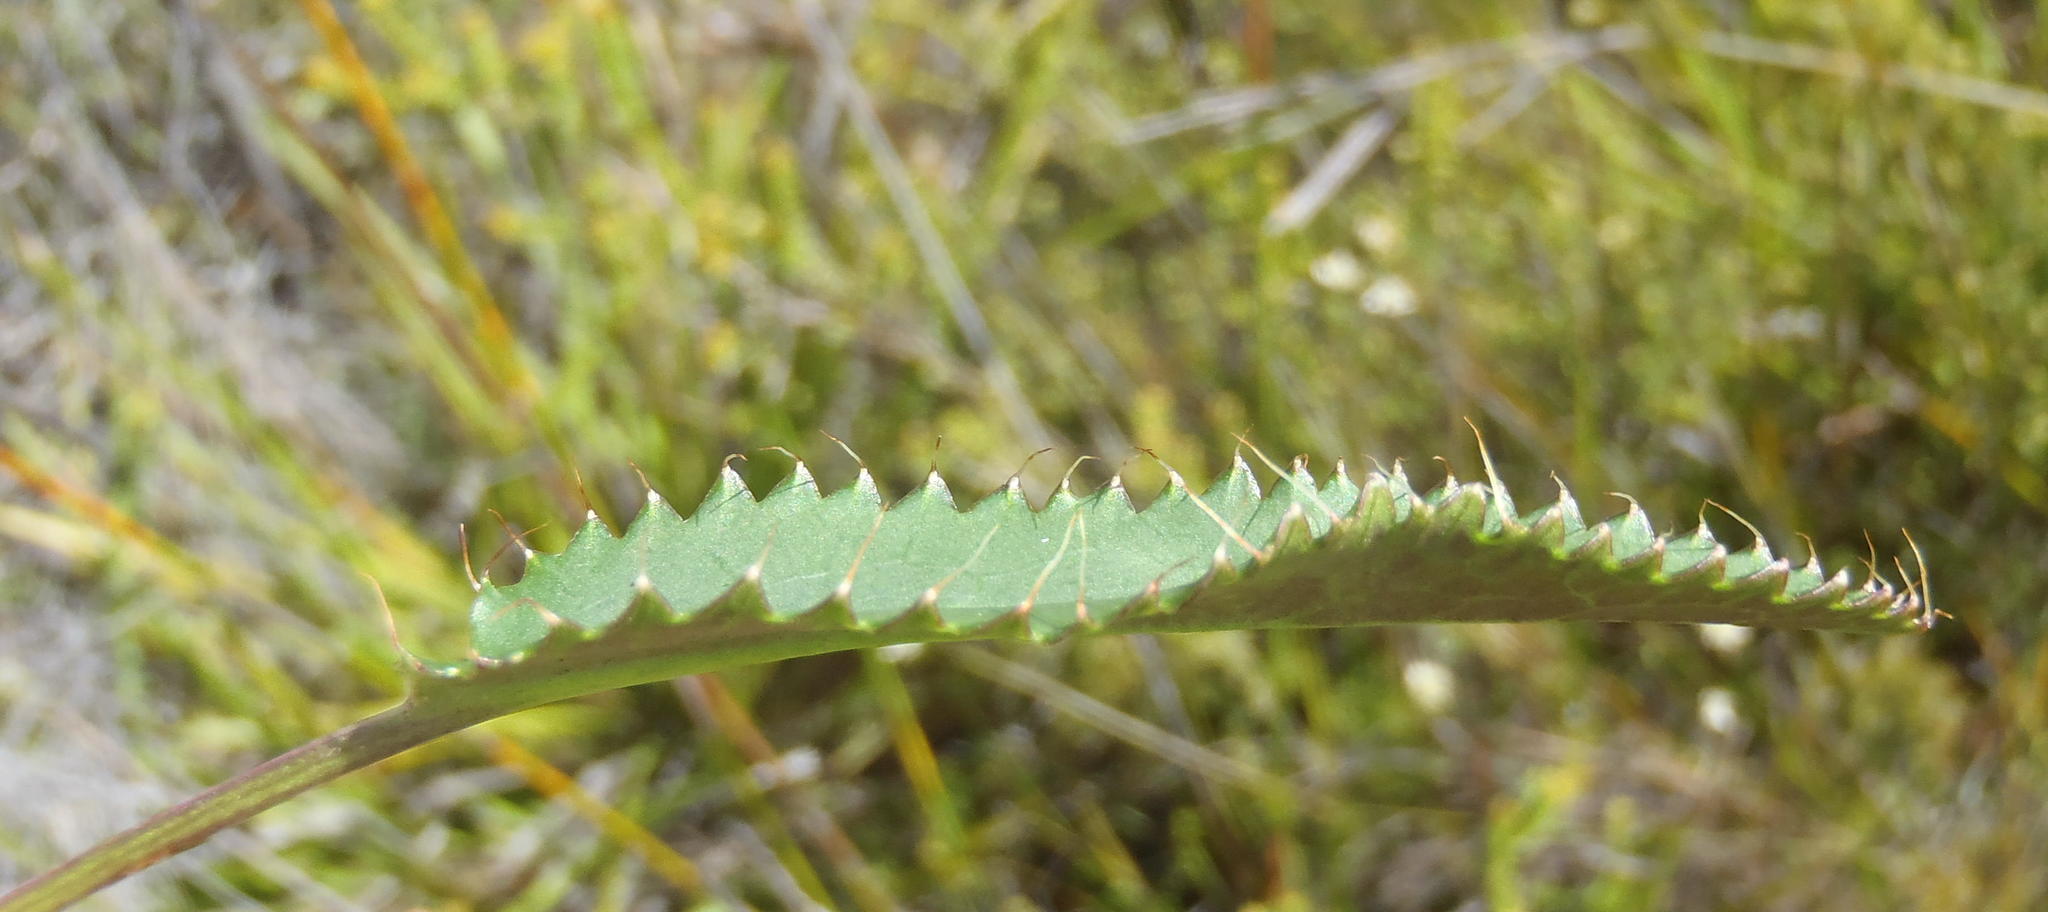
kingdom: Plantae
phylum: Tracheophyta
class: Magnoliopsida
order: Apiales
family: Apiaceae
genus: Alepidea
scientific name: Alepidea capensis
